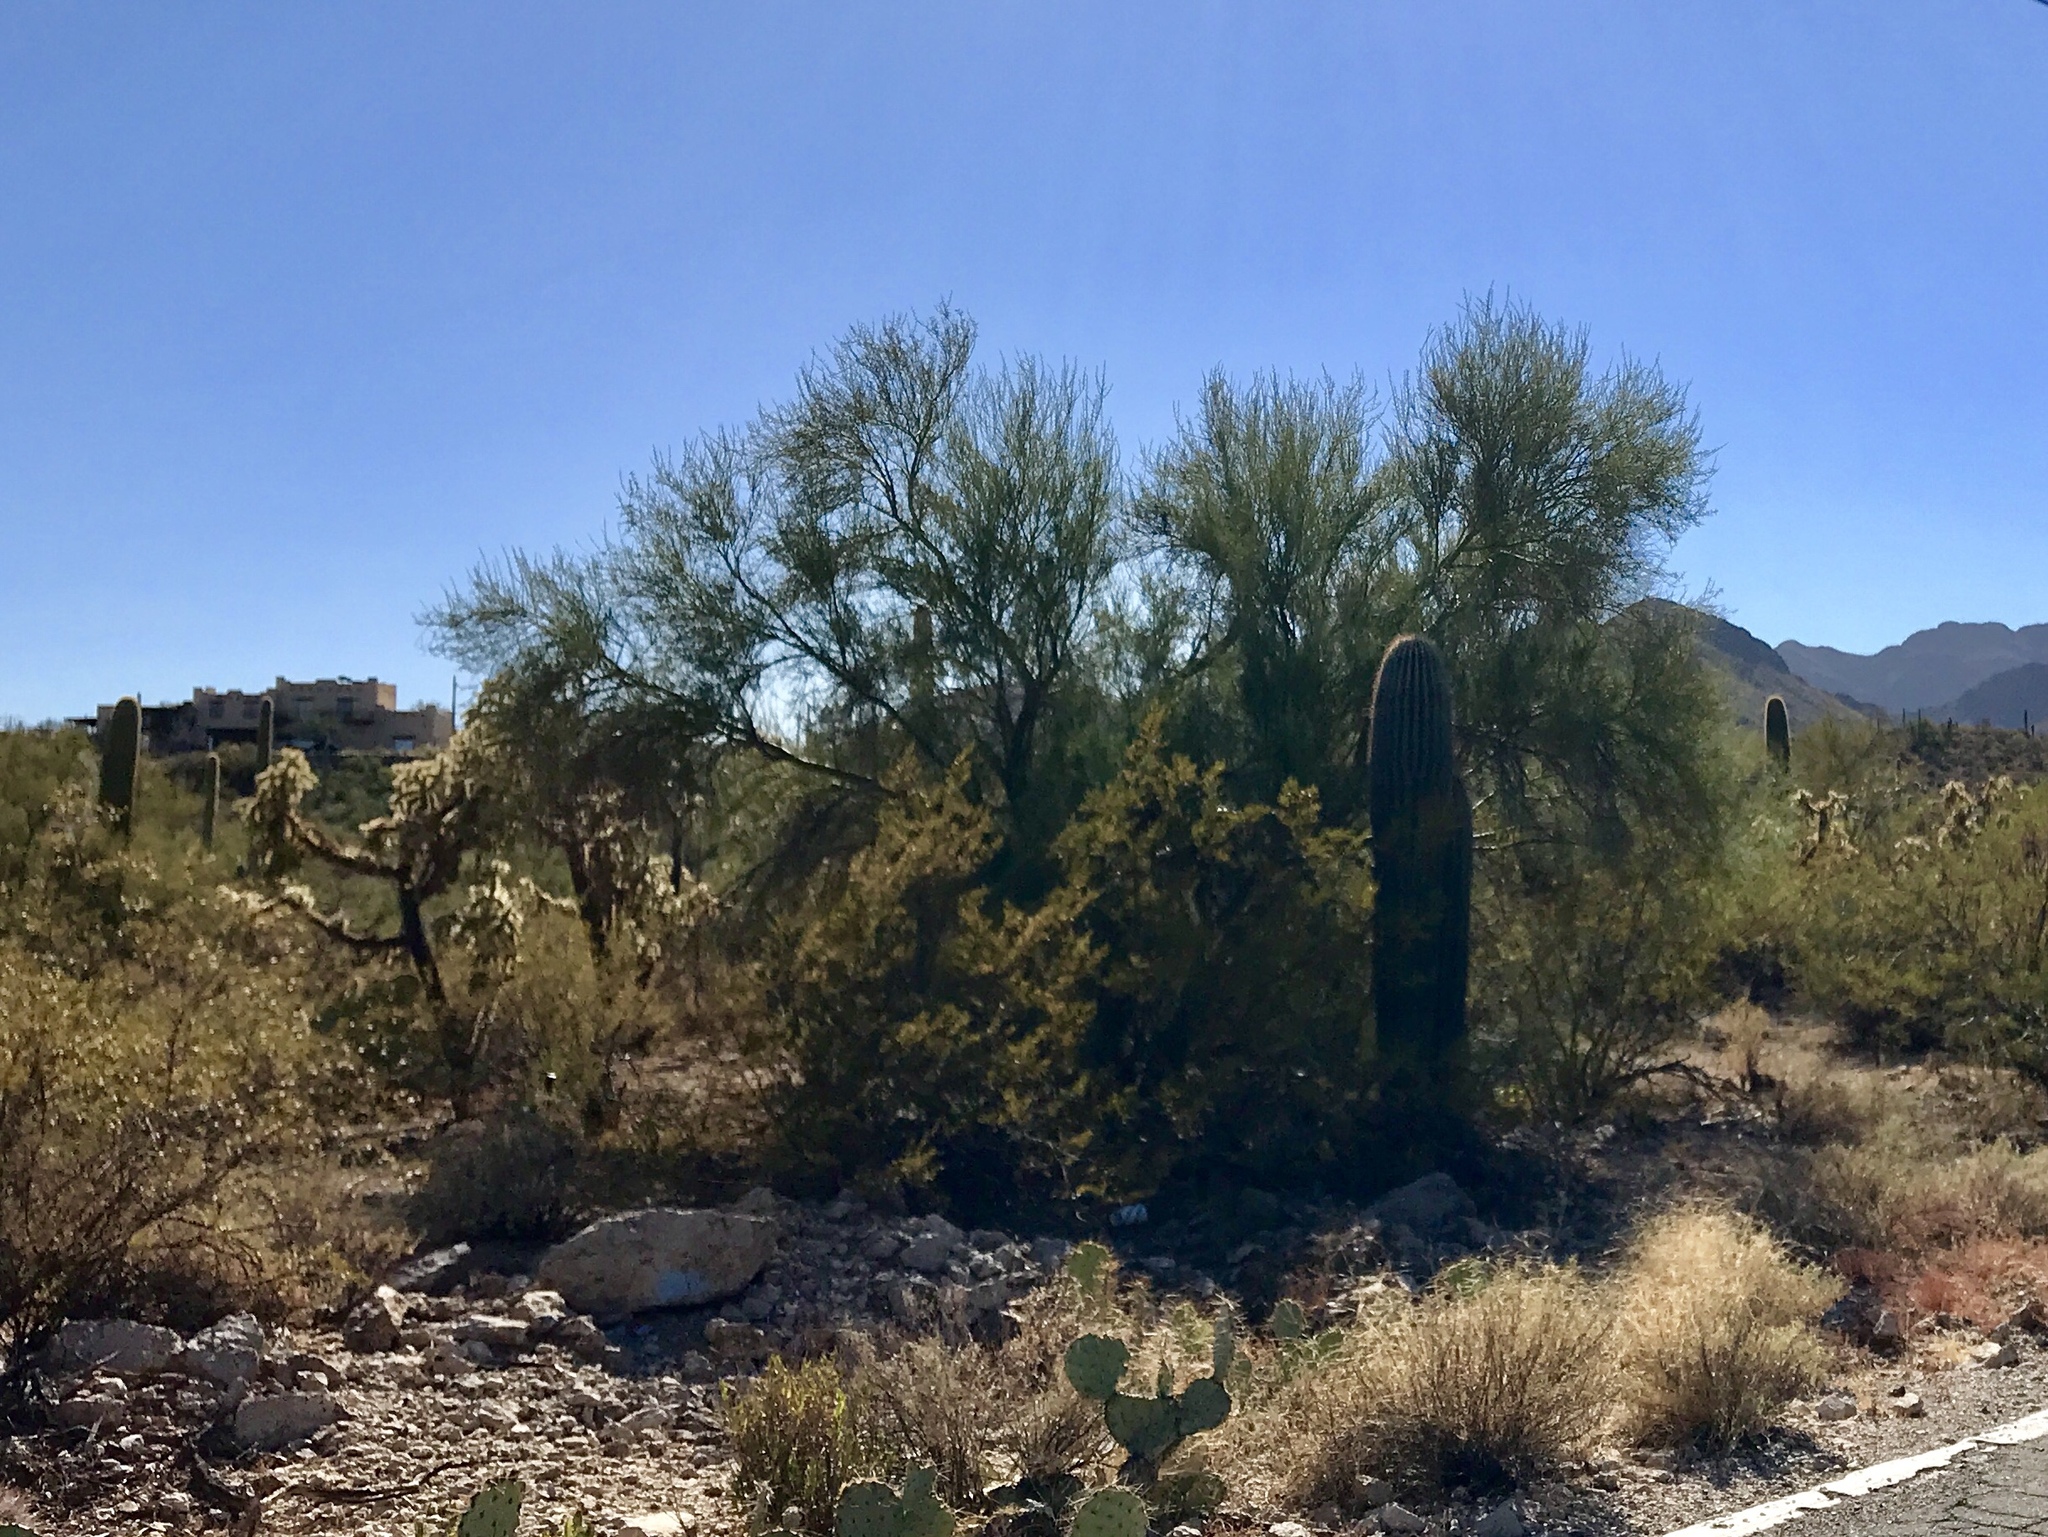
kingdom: Plantae
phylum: Tracheophyta
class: Magnoliopsida
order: Fabales
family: Fabaceae
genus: Parkinsonia
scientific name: Parkinsonia florida
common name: Blue paloverde
